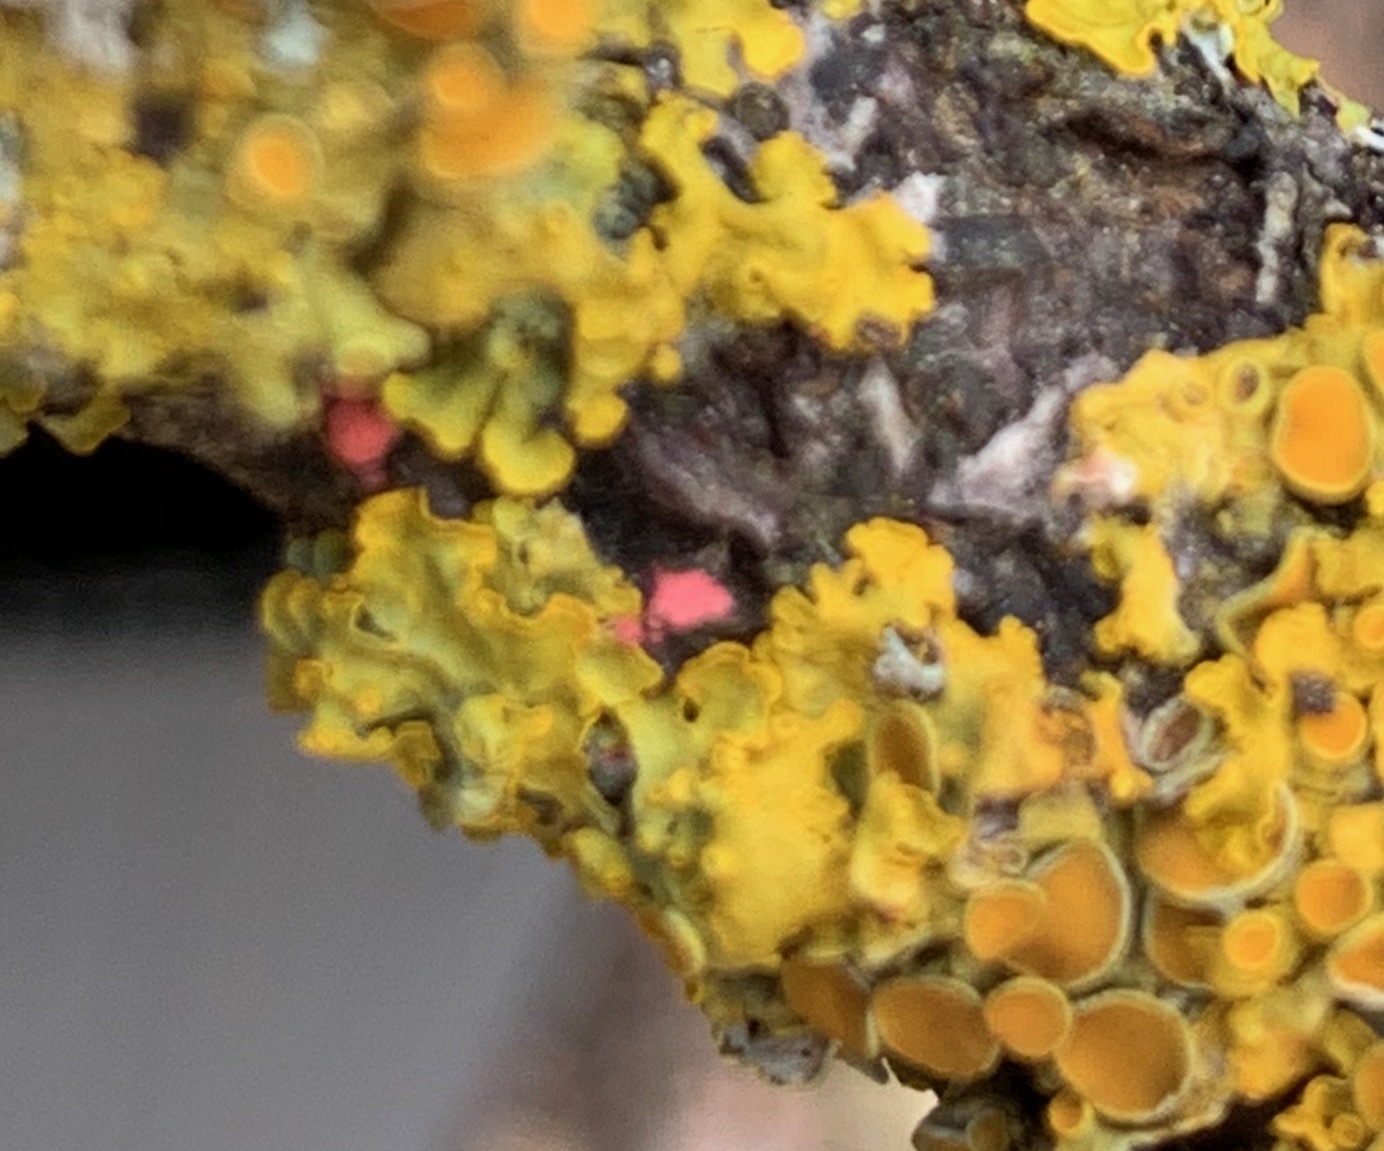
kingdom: Fungi
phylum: Ascomycota
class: Sordariomycetes
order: Hypocreales
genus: Illosporiopsis
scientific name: Illosporiopsis christiansenii
